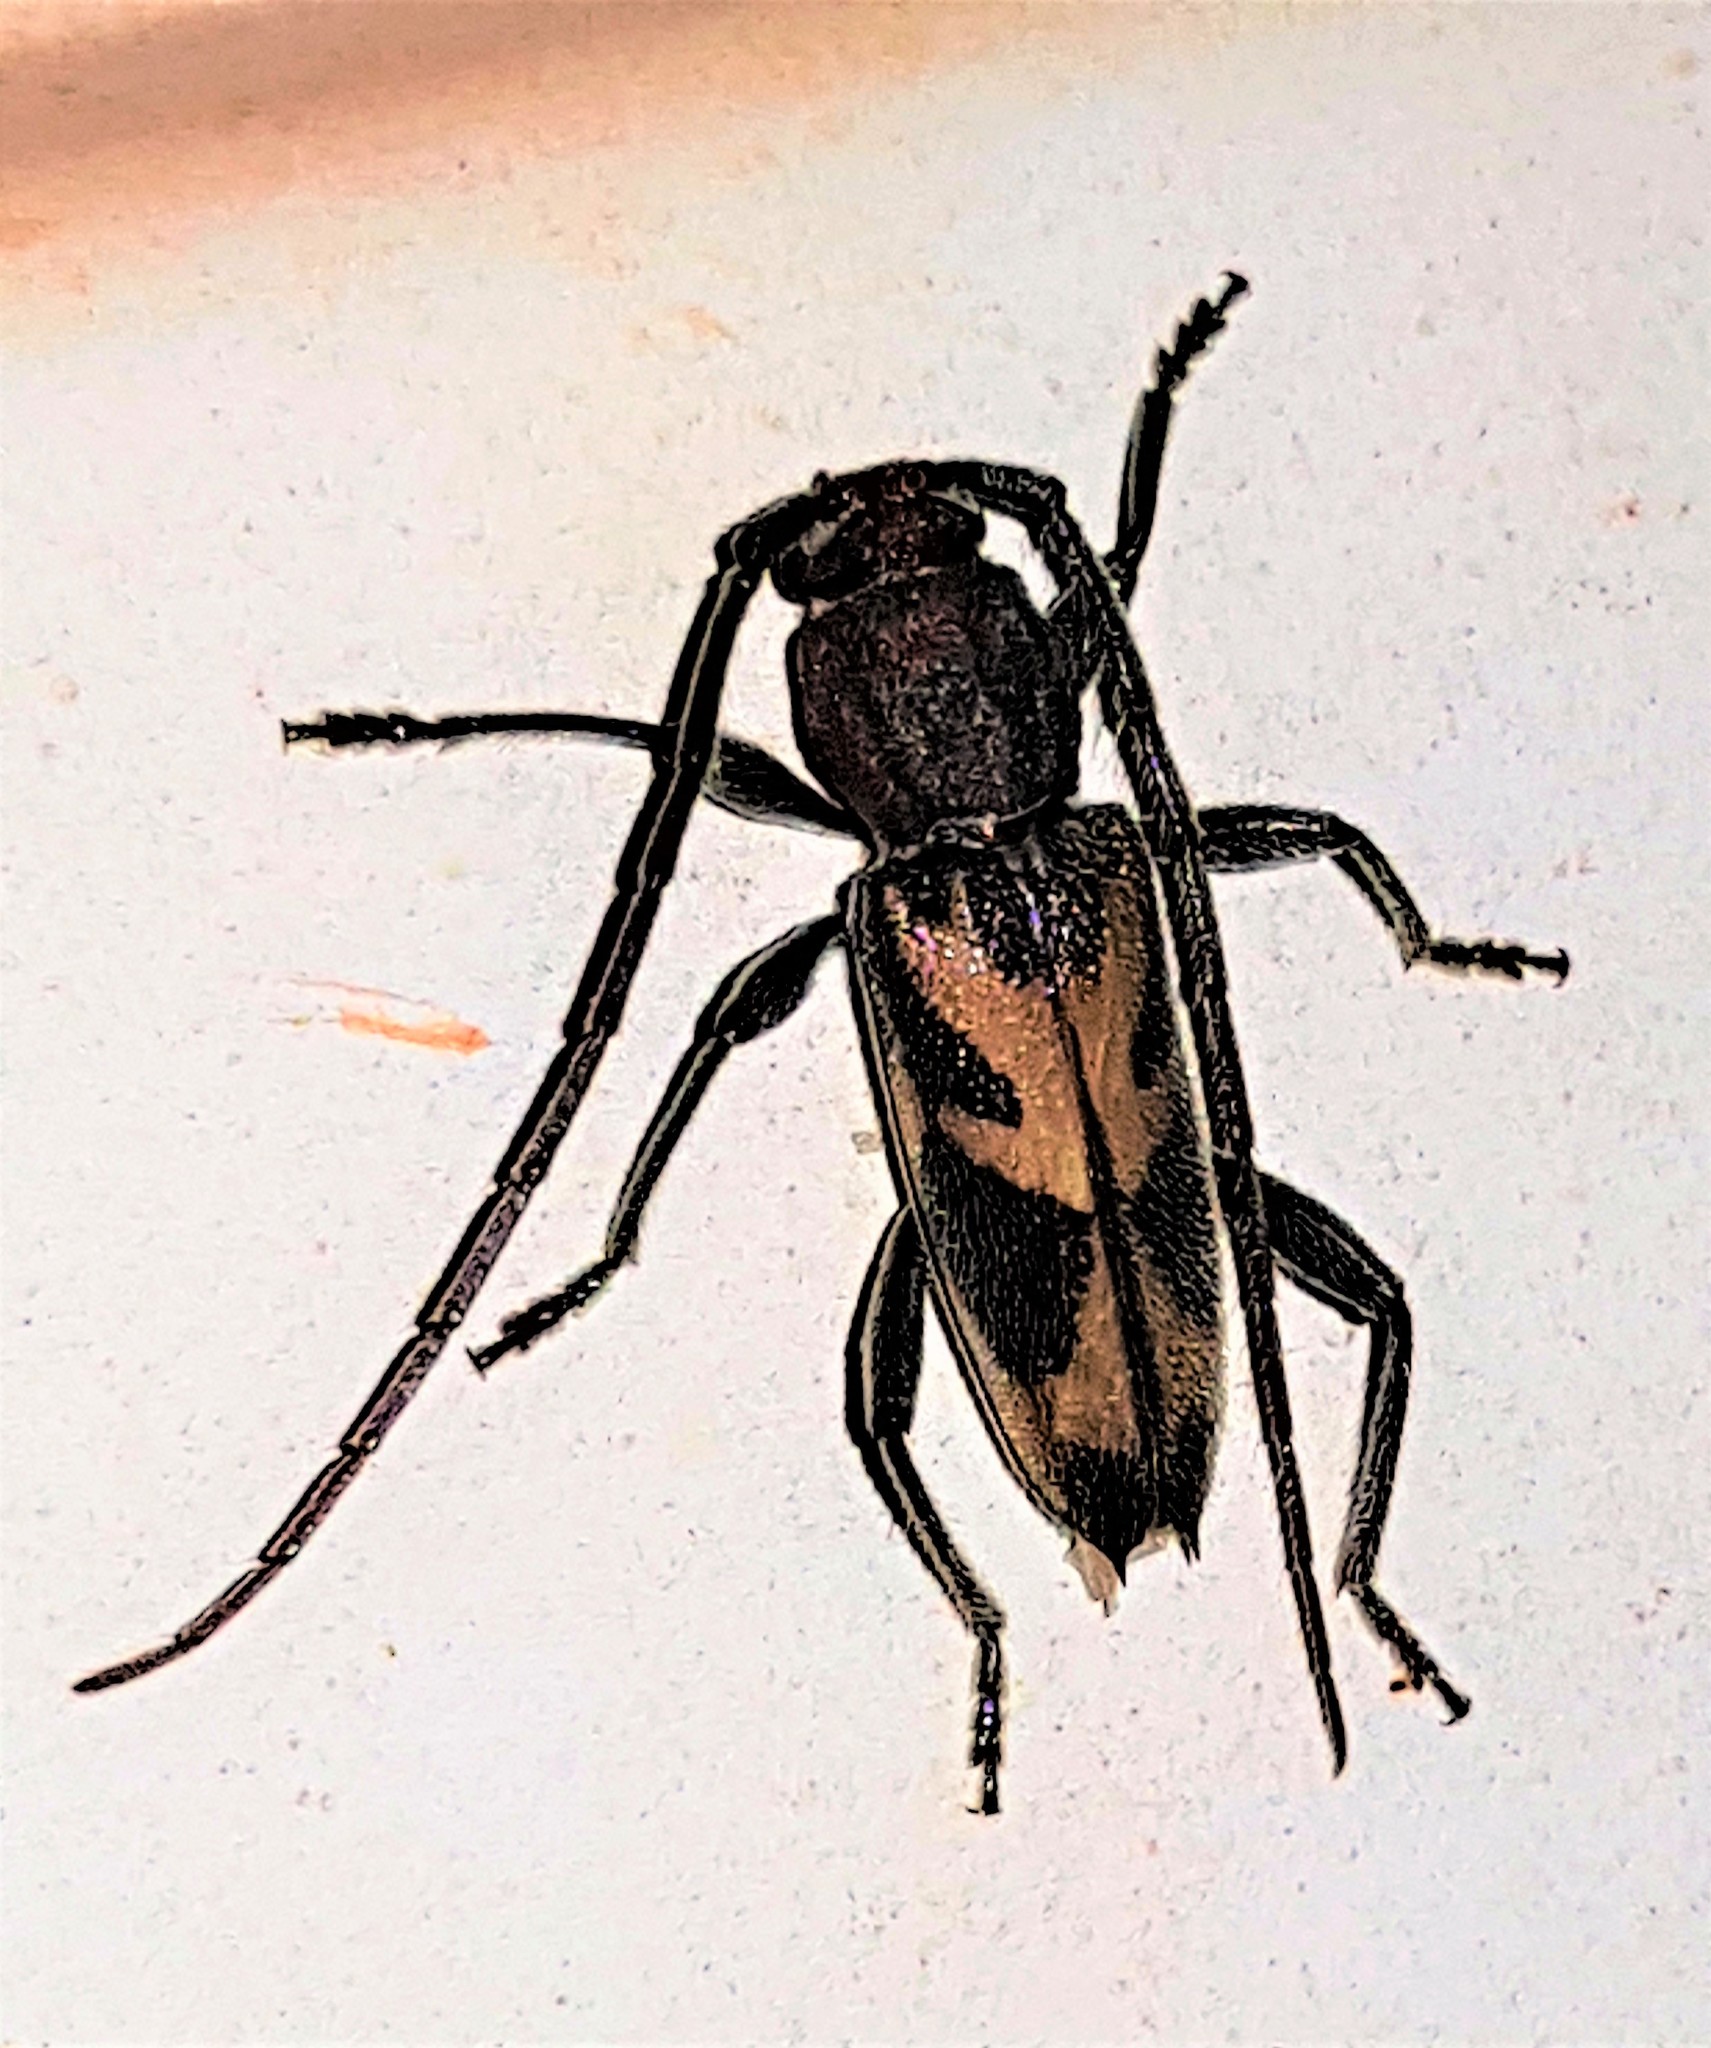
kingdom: Animalia
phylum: Arthropoda
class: Insecta
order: Coleoptera
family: Cerambycidae
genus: Achryson
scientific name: Achryson pictum
